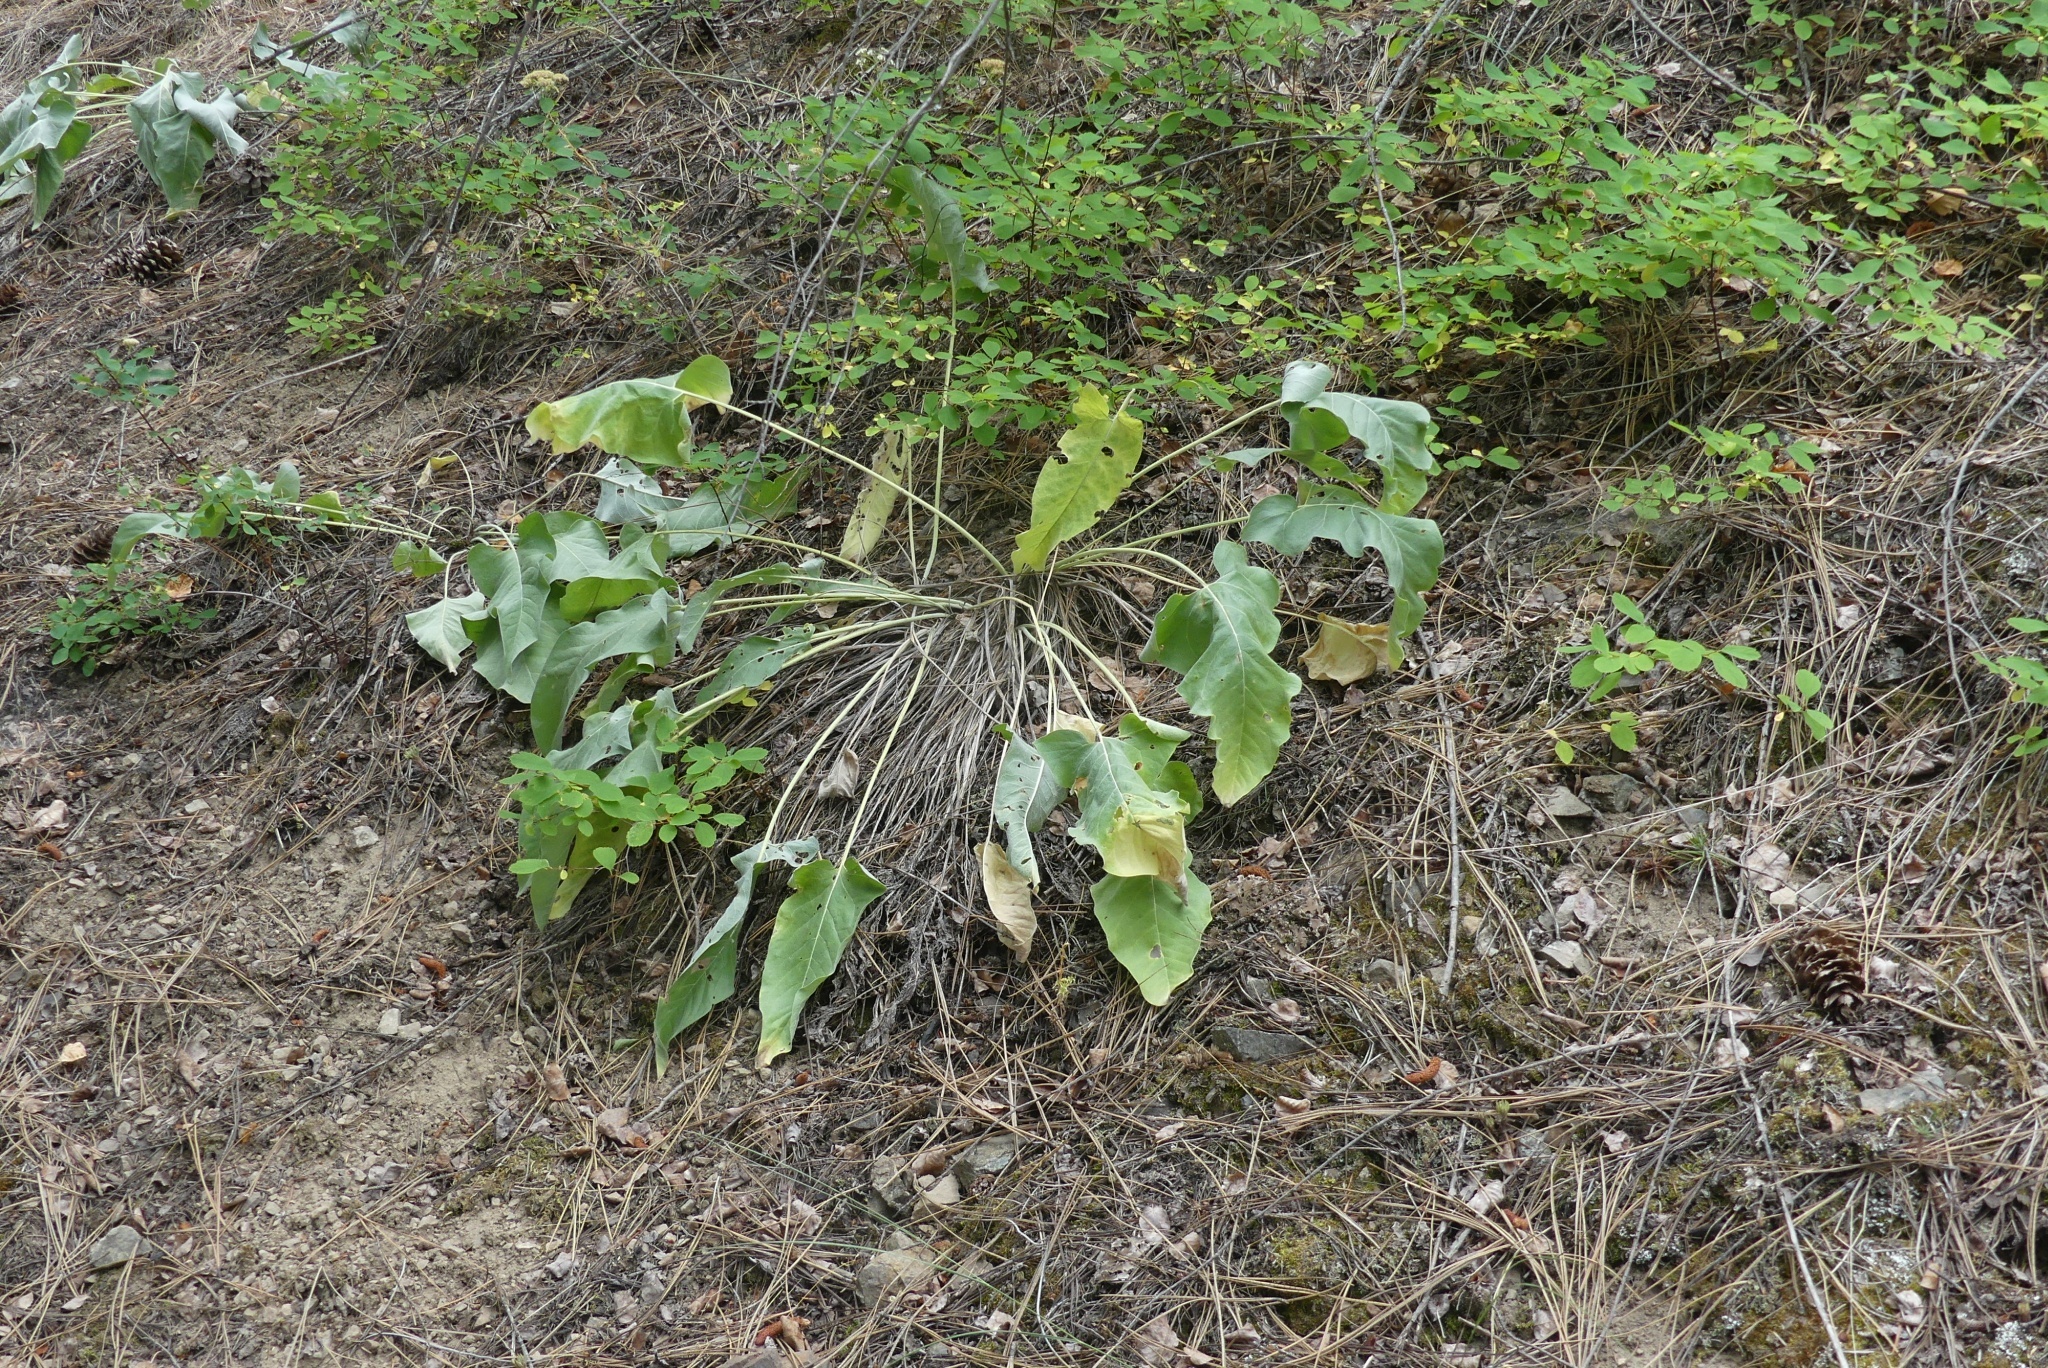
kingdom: Plantae
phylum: Tracheophyta
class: Magnoliopsida
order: Asterales
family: Asteraceae
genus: Wyethia
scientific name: Wyethia sagittata
